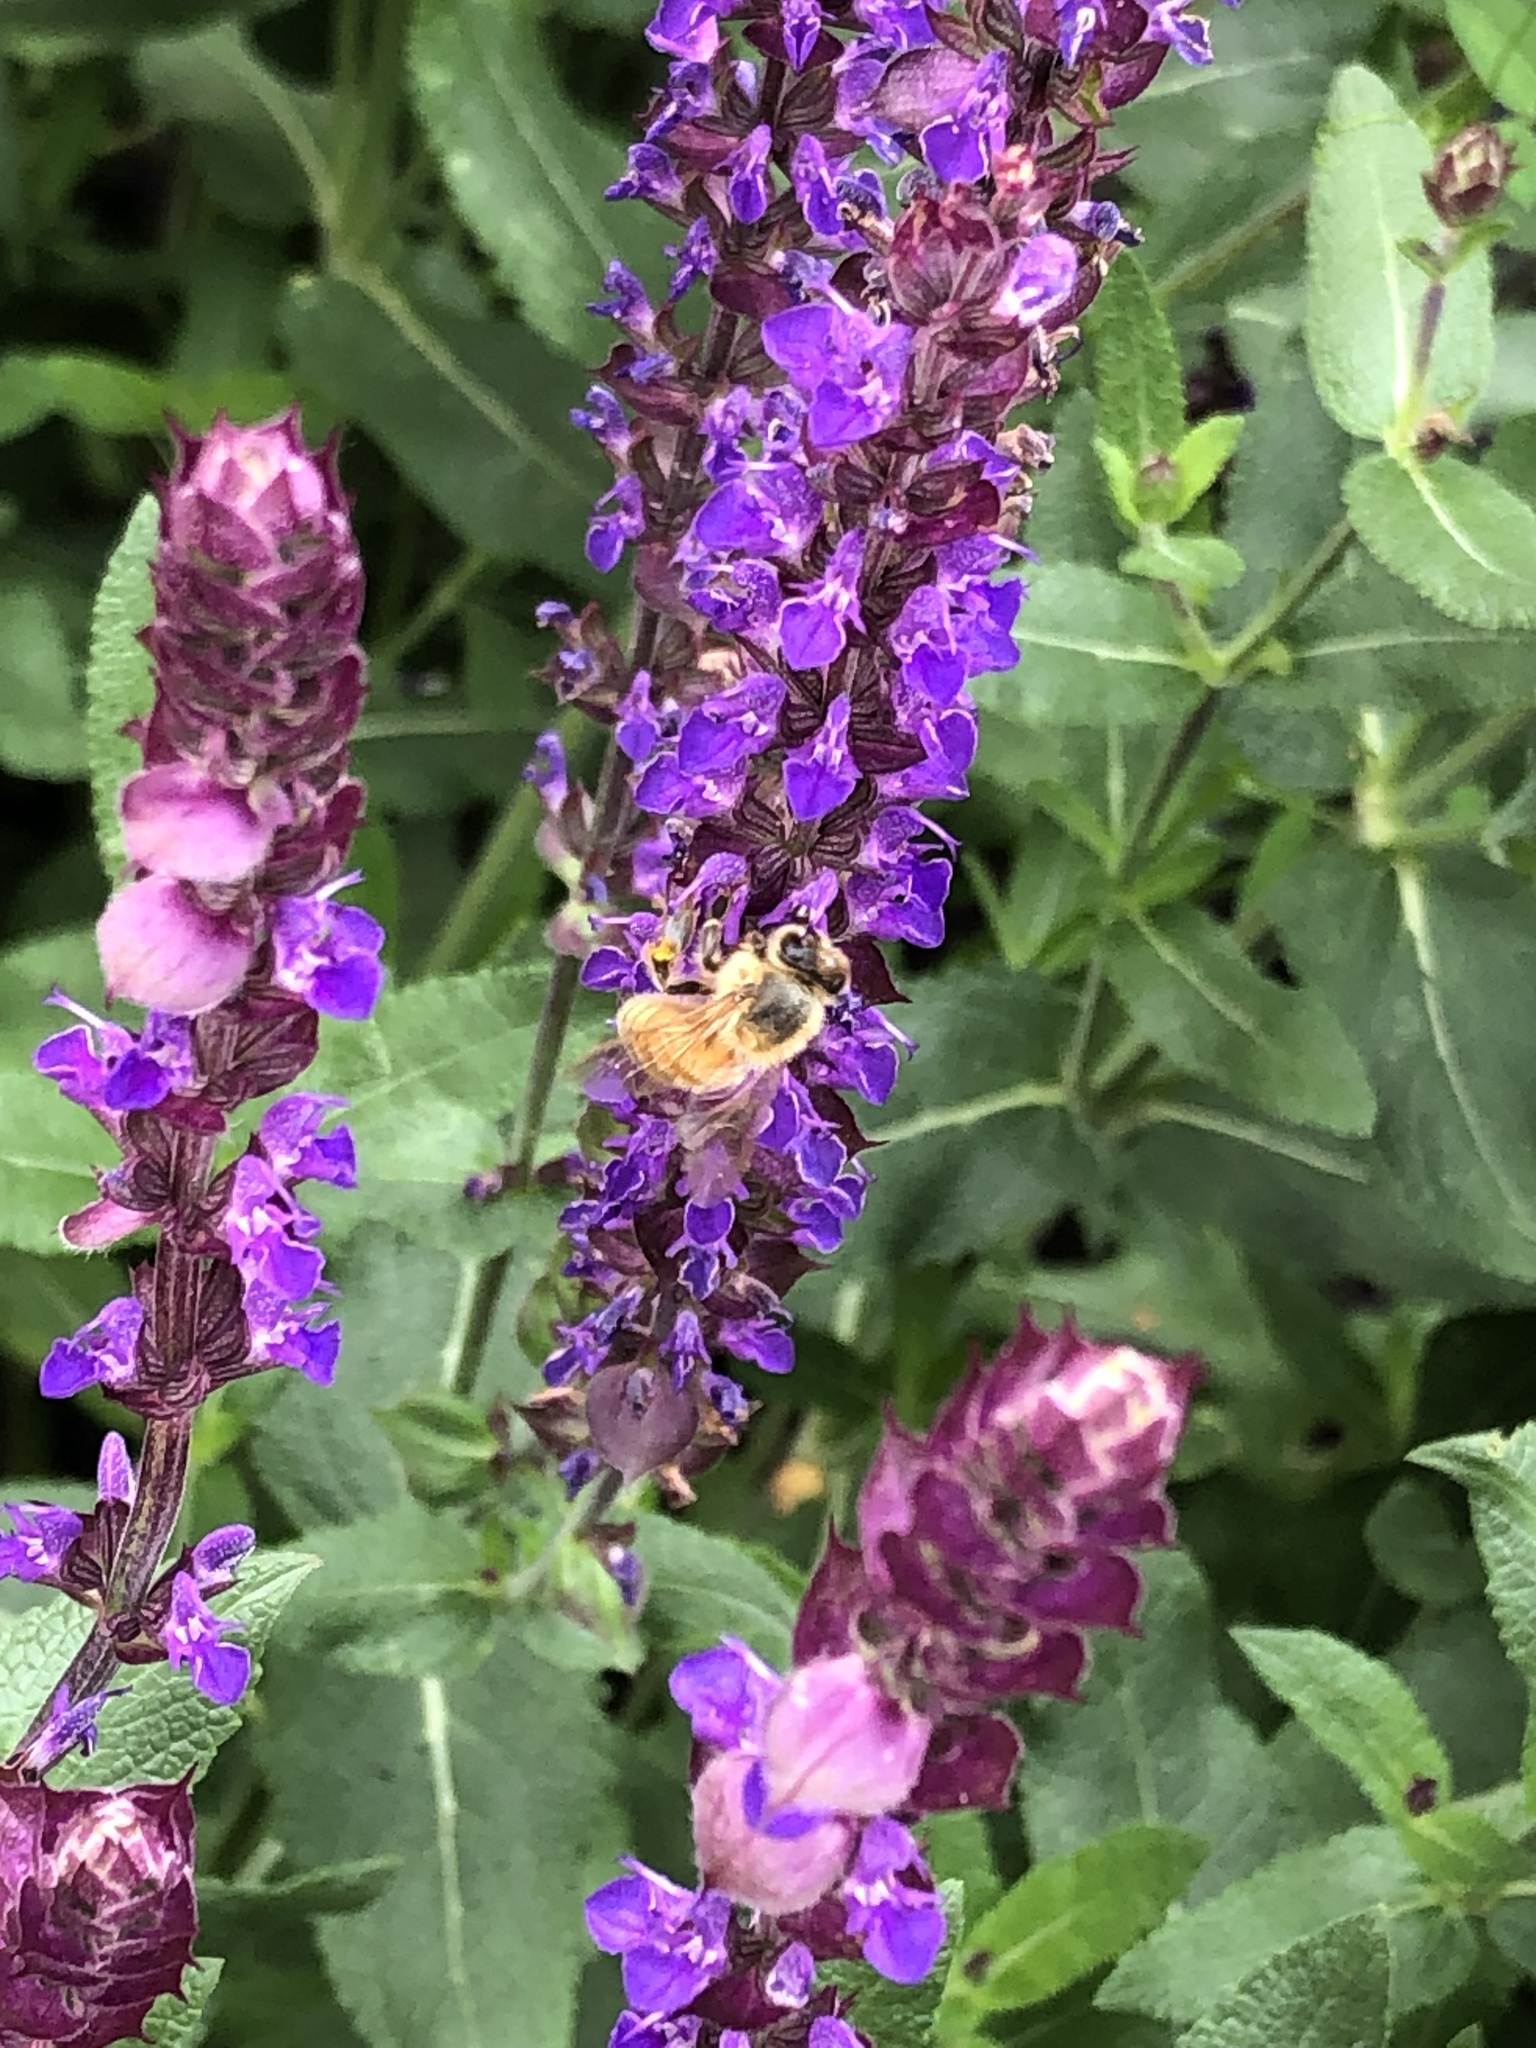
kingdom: Animalia
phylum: Arthropoda
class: Insecta
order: Hymenoptera
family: Apidae
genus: Apis
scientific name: Apis mellifera
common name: Honey bee
